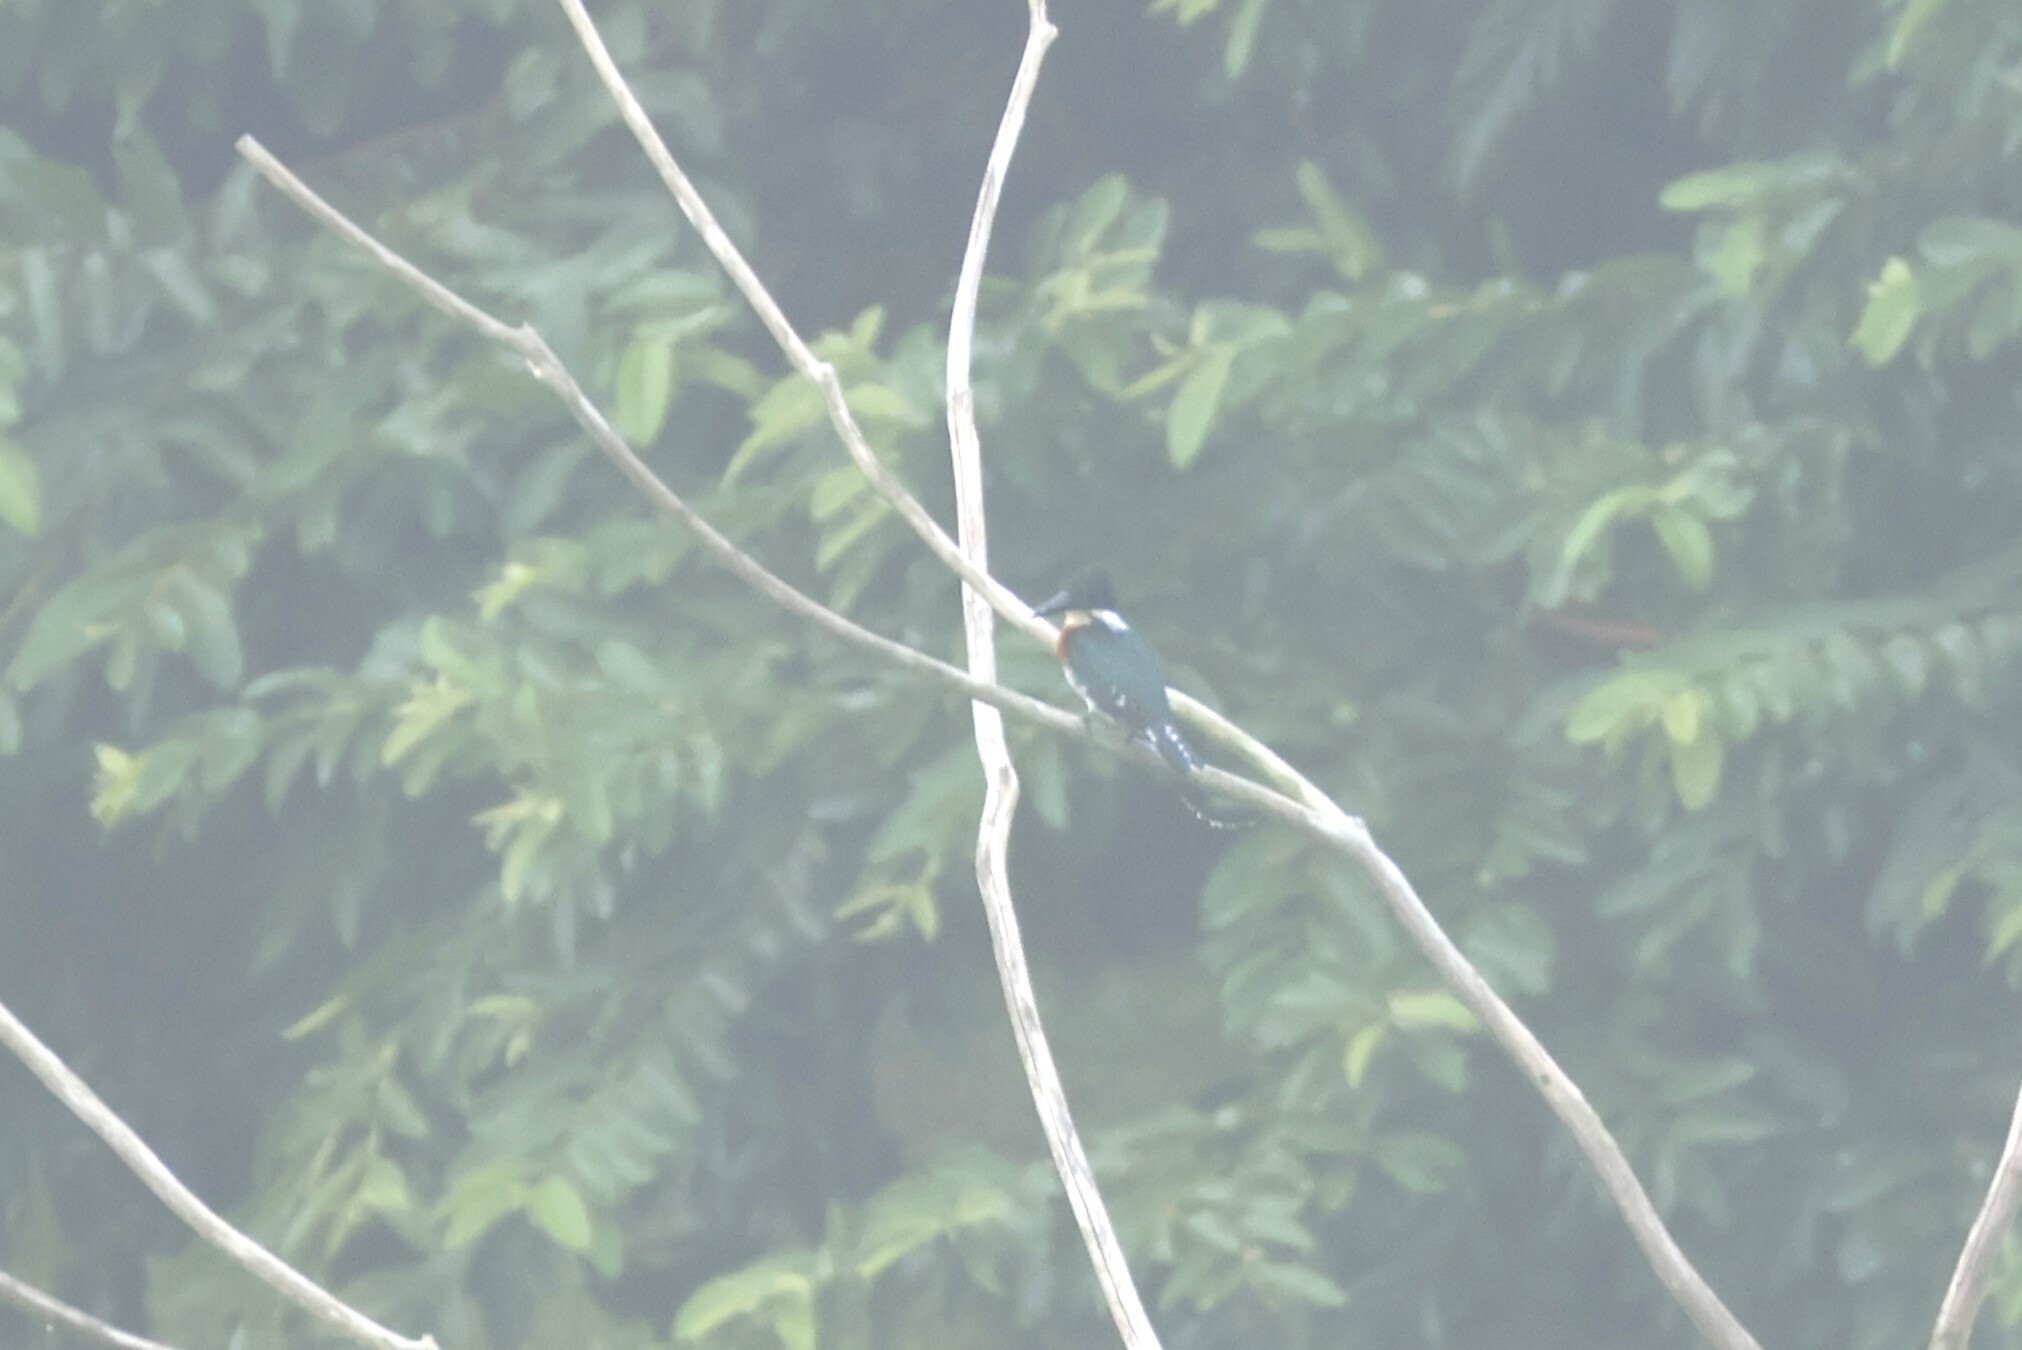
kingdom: Animalia
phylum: Chordata
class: Aves
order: Coraciiformes
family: Alcedinidae
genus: Chloroceryle
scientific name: Chloroceryle americana
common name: Green kingfisher
